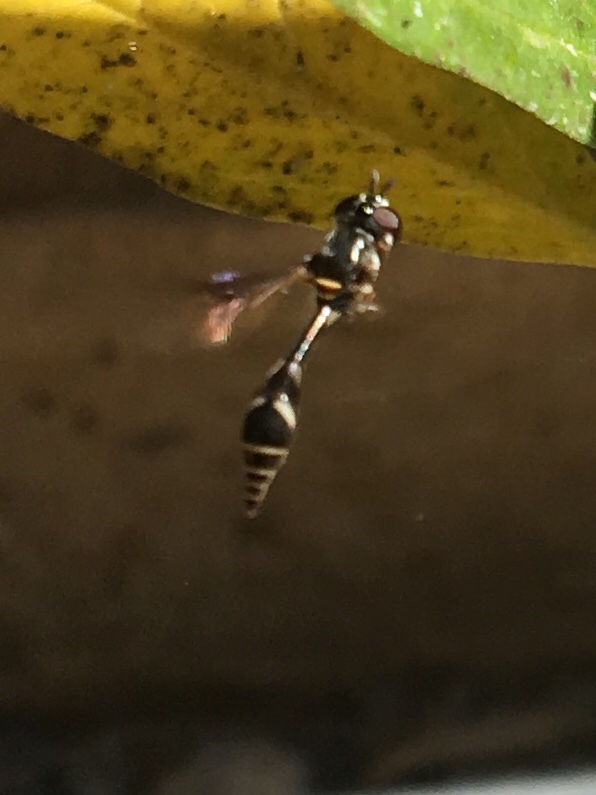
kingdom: Animalia
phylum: Arthropoda
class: Insecta
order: Diptera
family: Syrphidae
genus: Dioprosopa
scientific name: Dioprosopa clavatus
